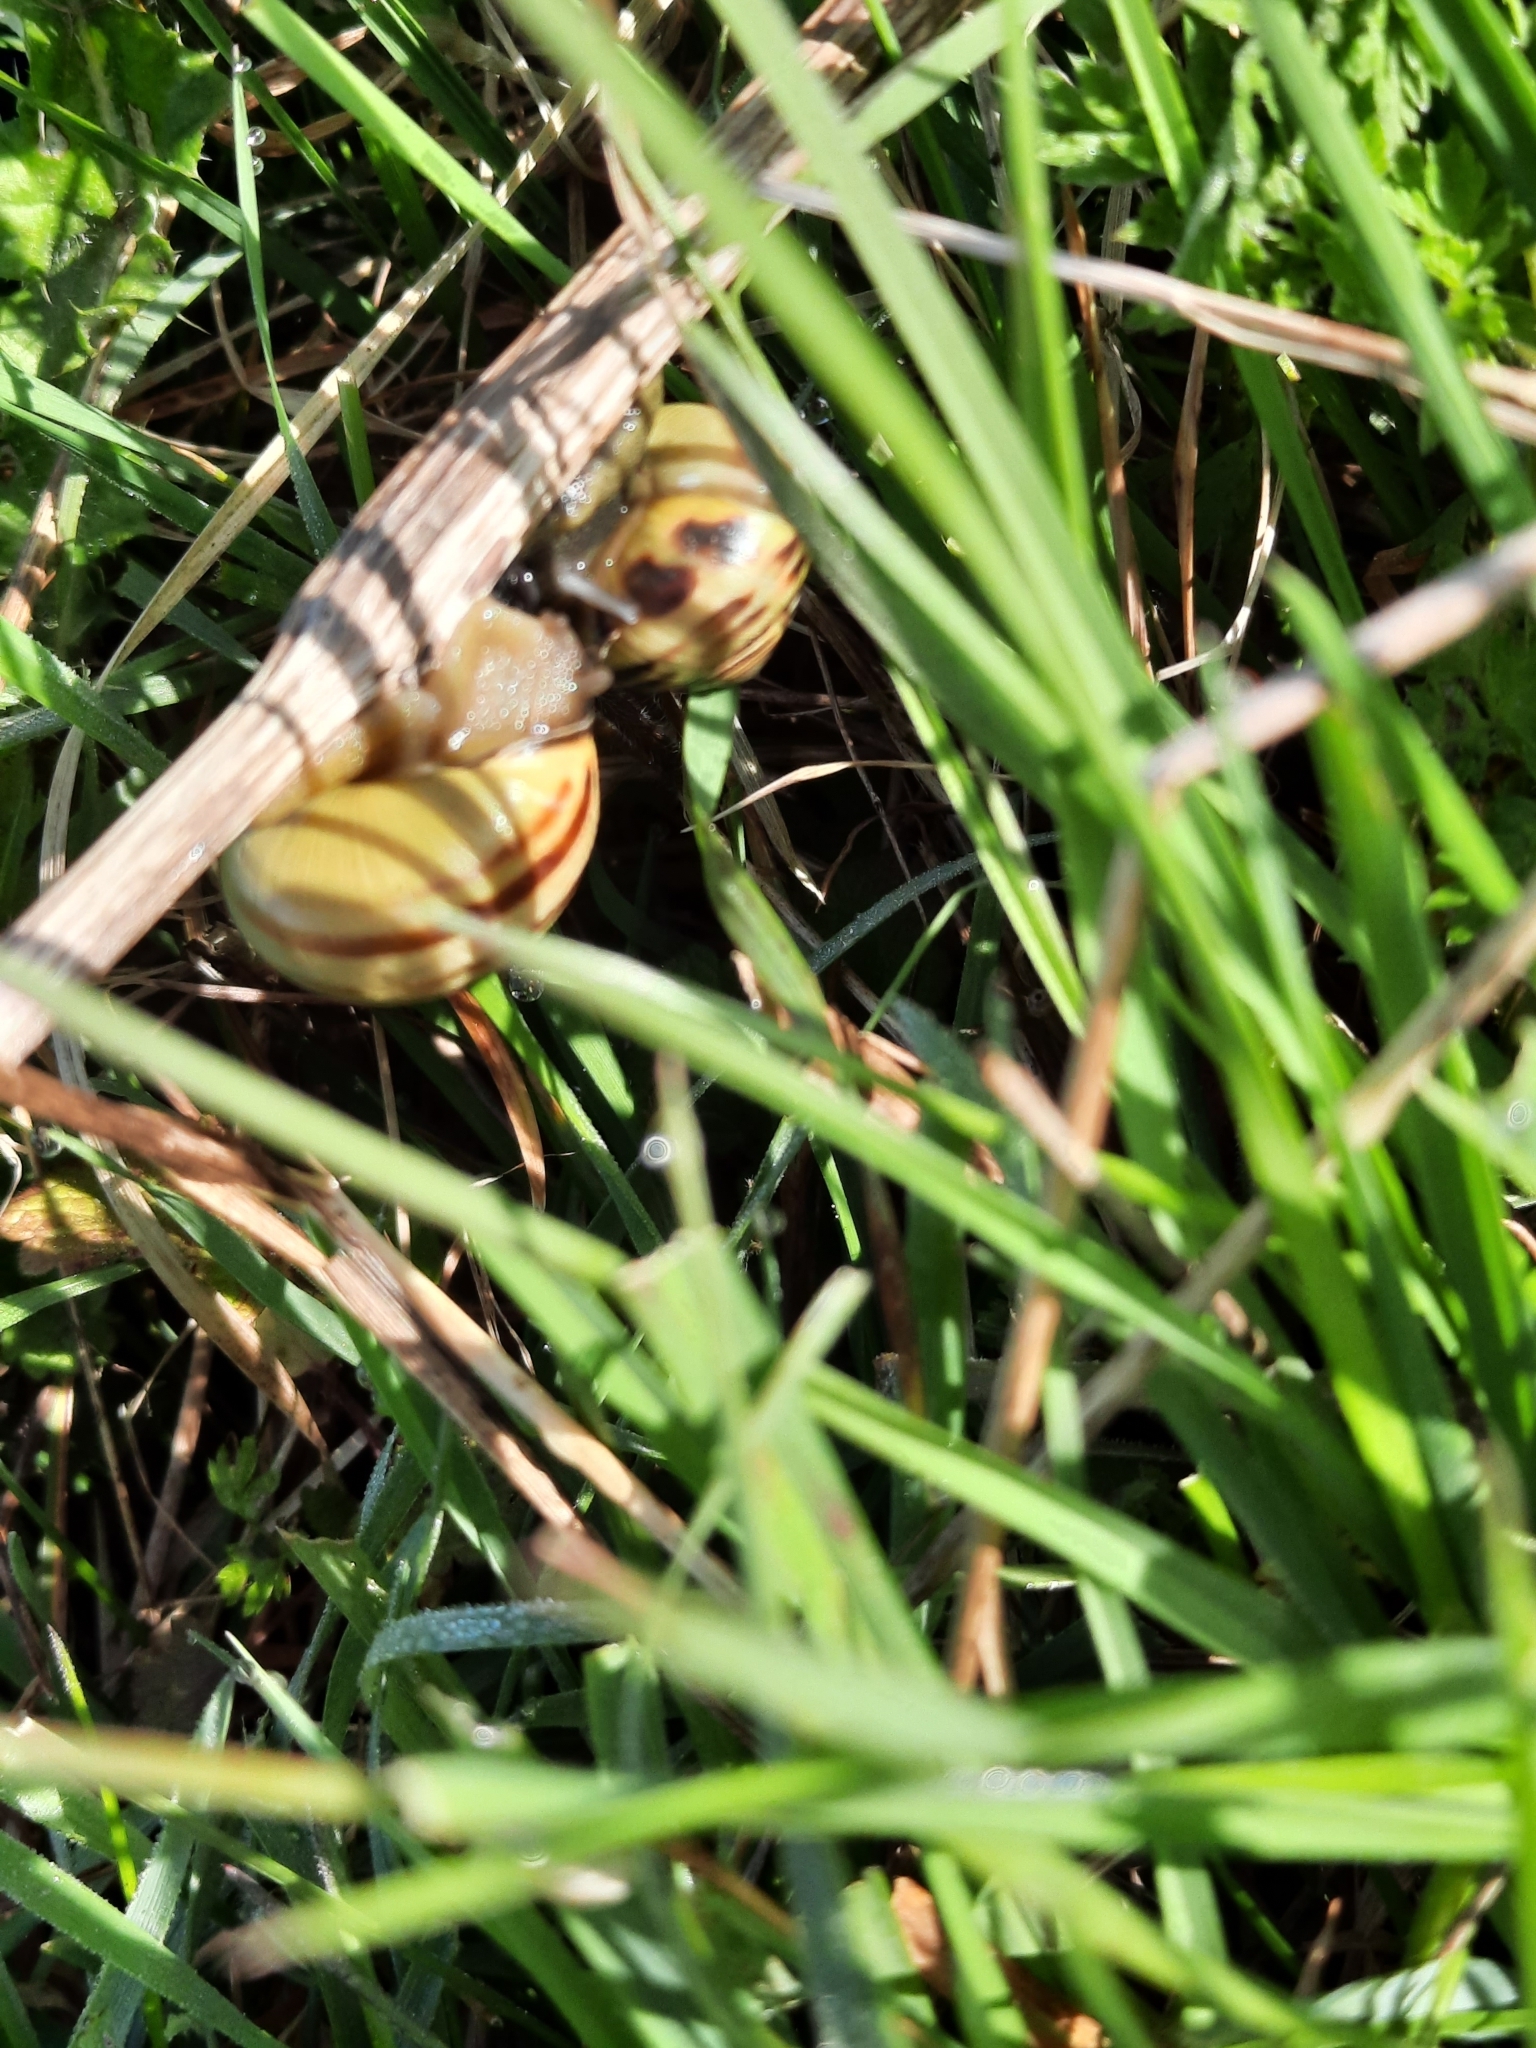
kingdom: Animalia
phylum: Mollusca
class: Gastropoda
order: Stylommatophora
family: Helicidae
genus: Cepaea
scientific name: Cepaea nemoralis
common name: Grovesnail
